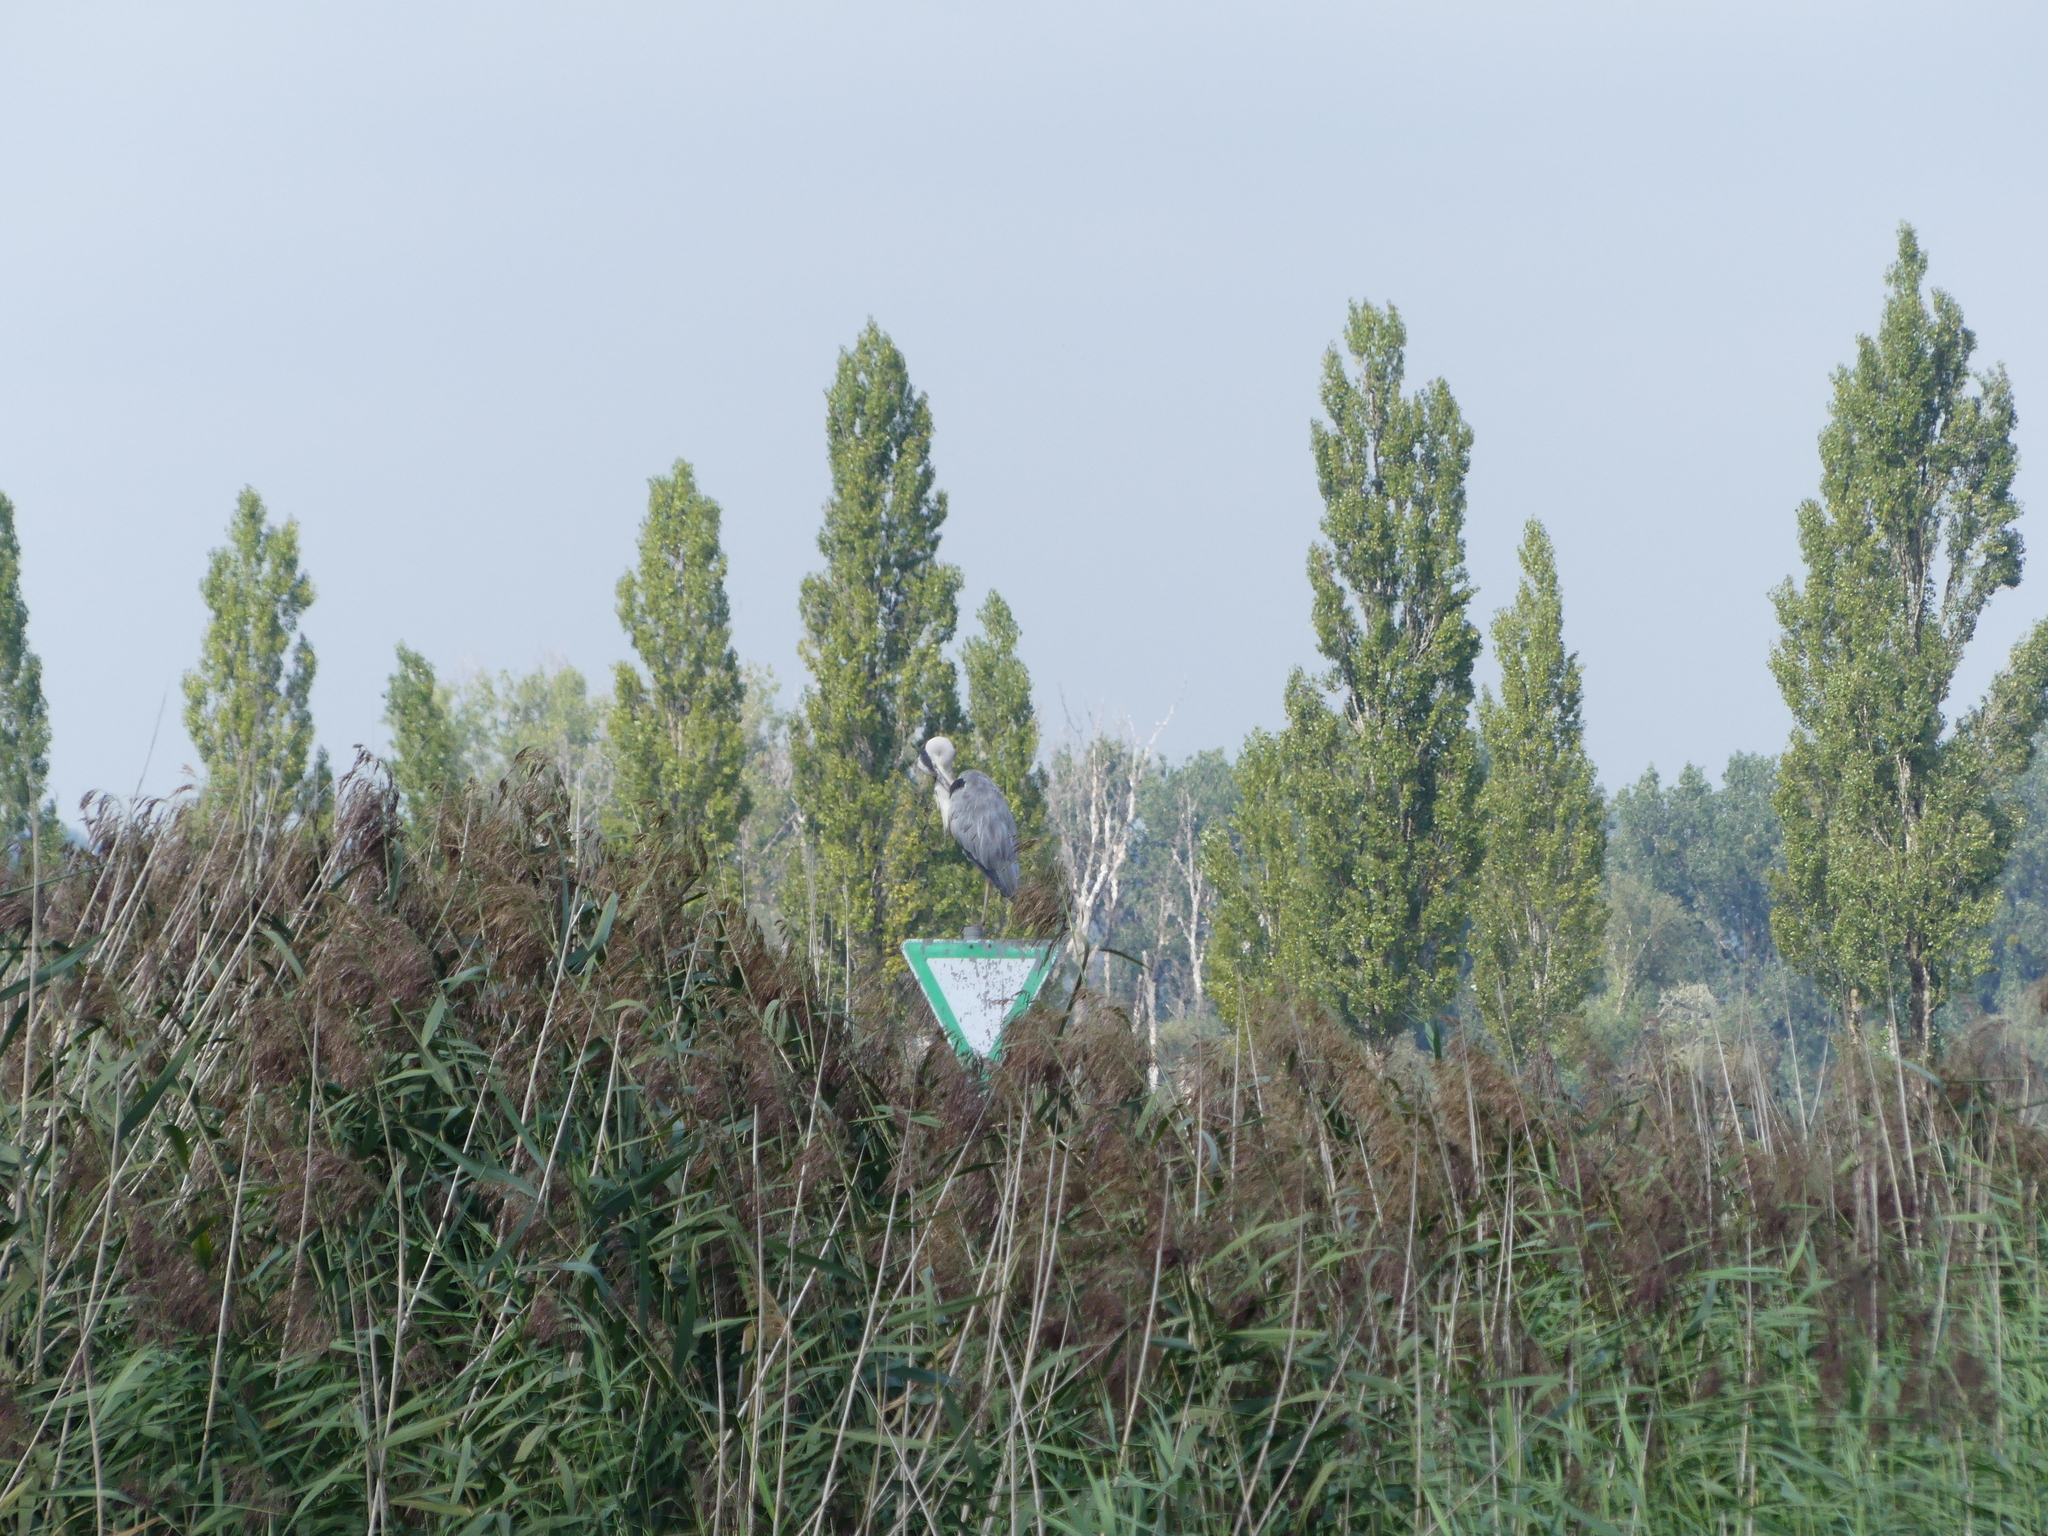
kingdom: Animalia
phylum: Chordata
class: Aves
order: Pelecaniformes
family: Ardeidae
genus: Ardea
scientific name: Ardea cinerea
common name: Grey heron
